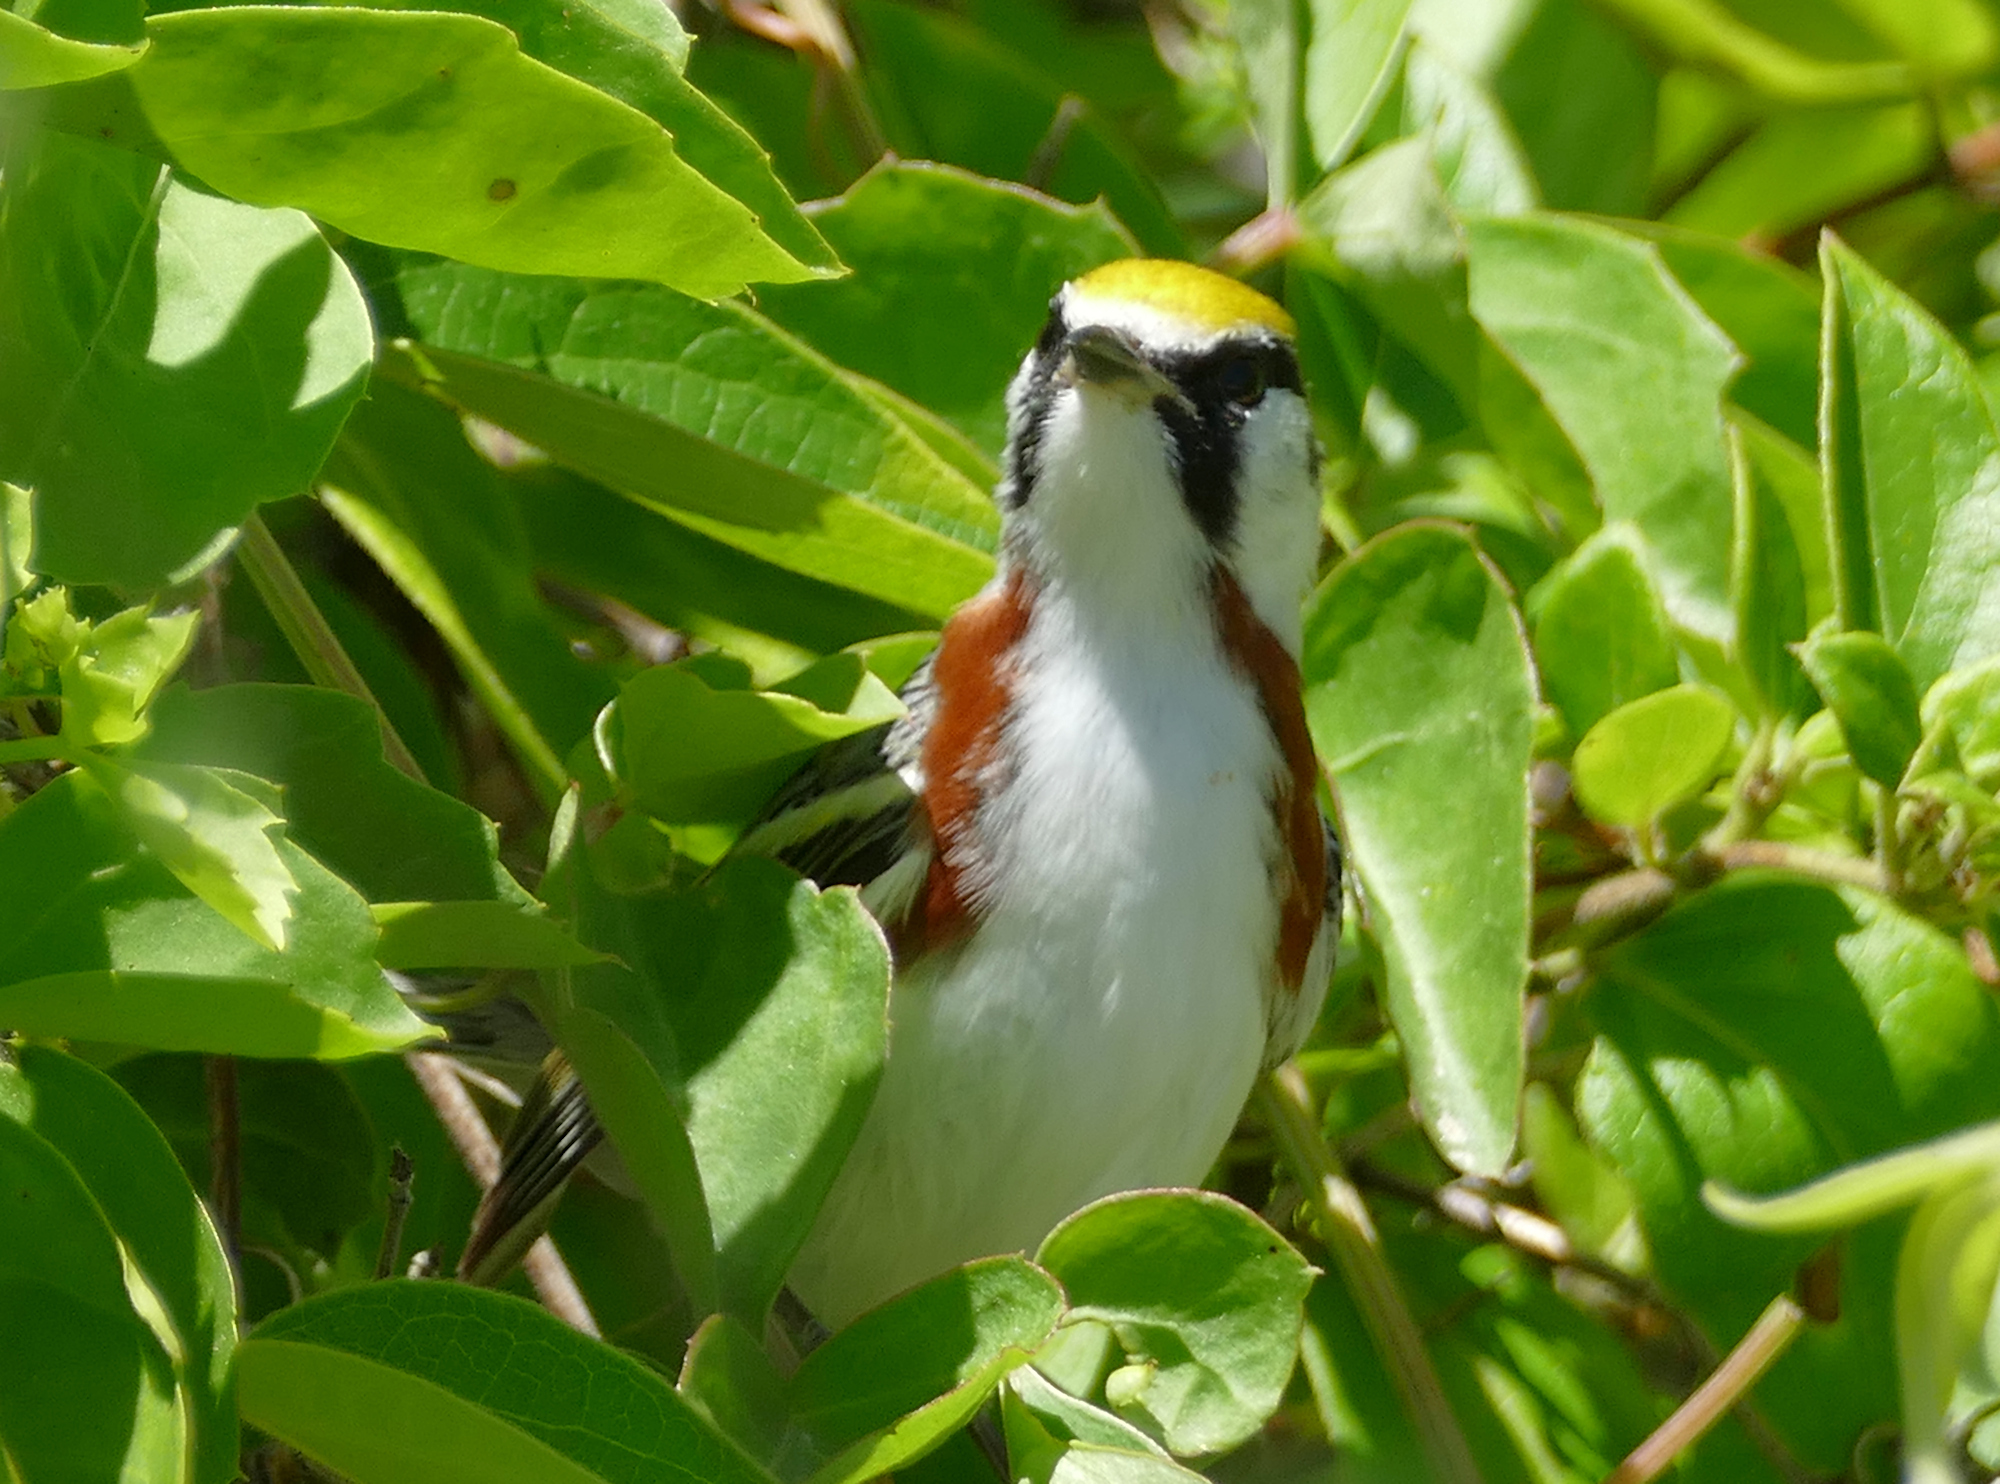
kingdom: Animalia
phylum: Chordata
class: Aves
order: Passeriformes
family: Parulidae
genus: Setophaga
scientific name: Setophaga pensylvanica
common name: Chestnut-sided warbler
